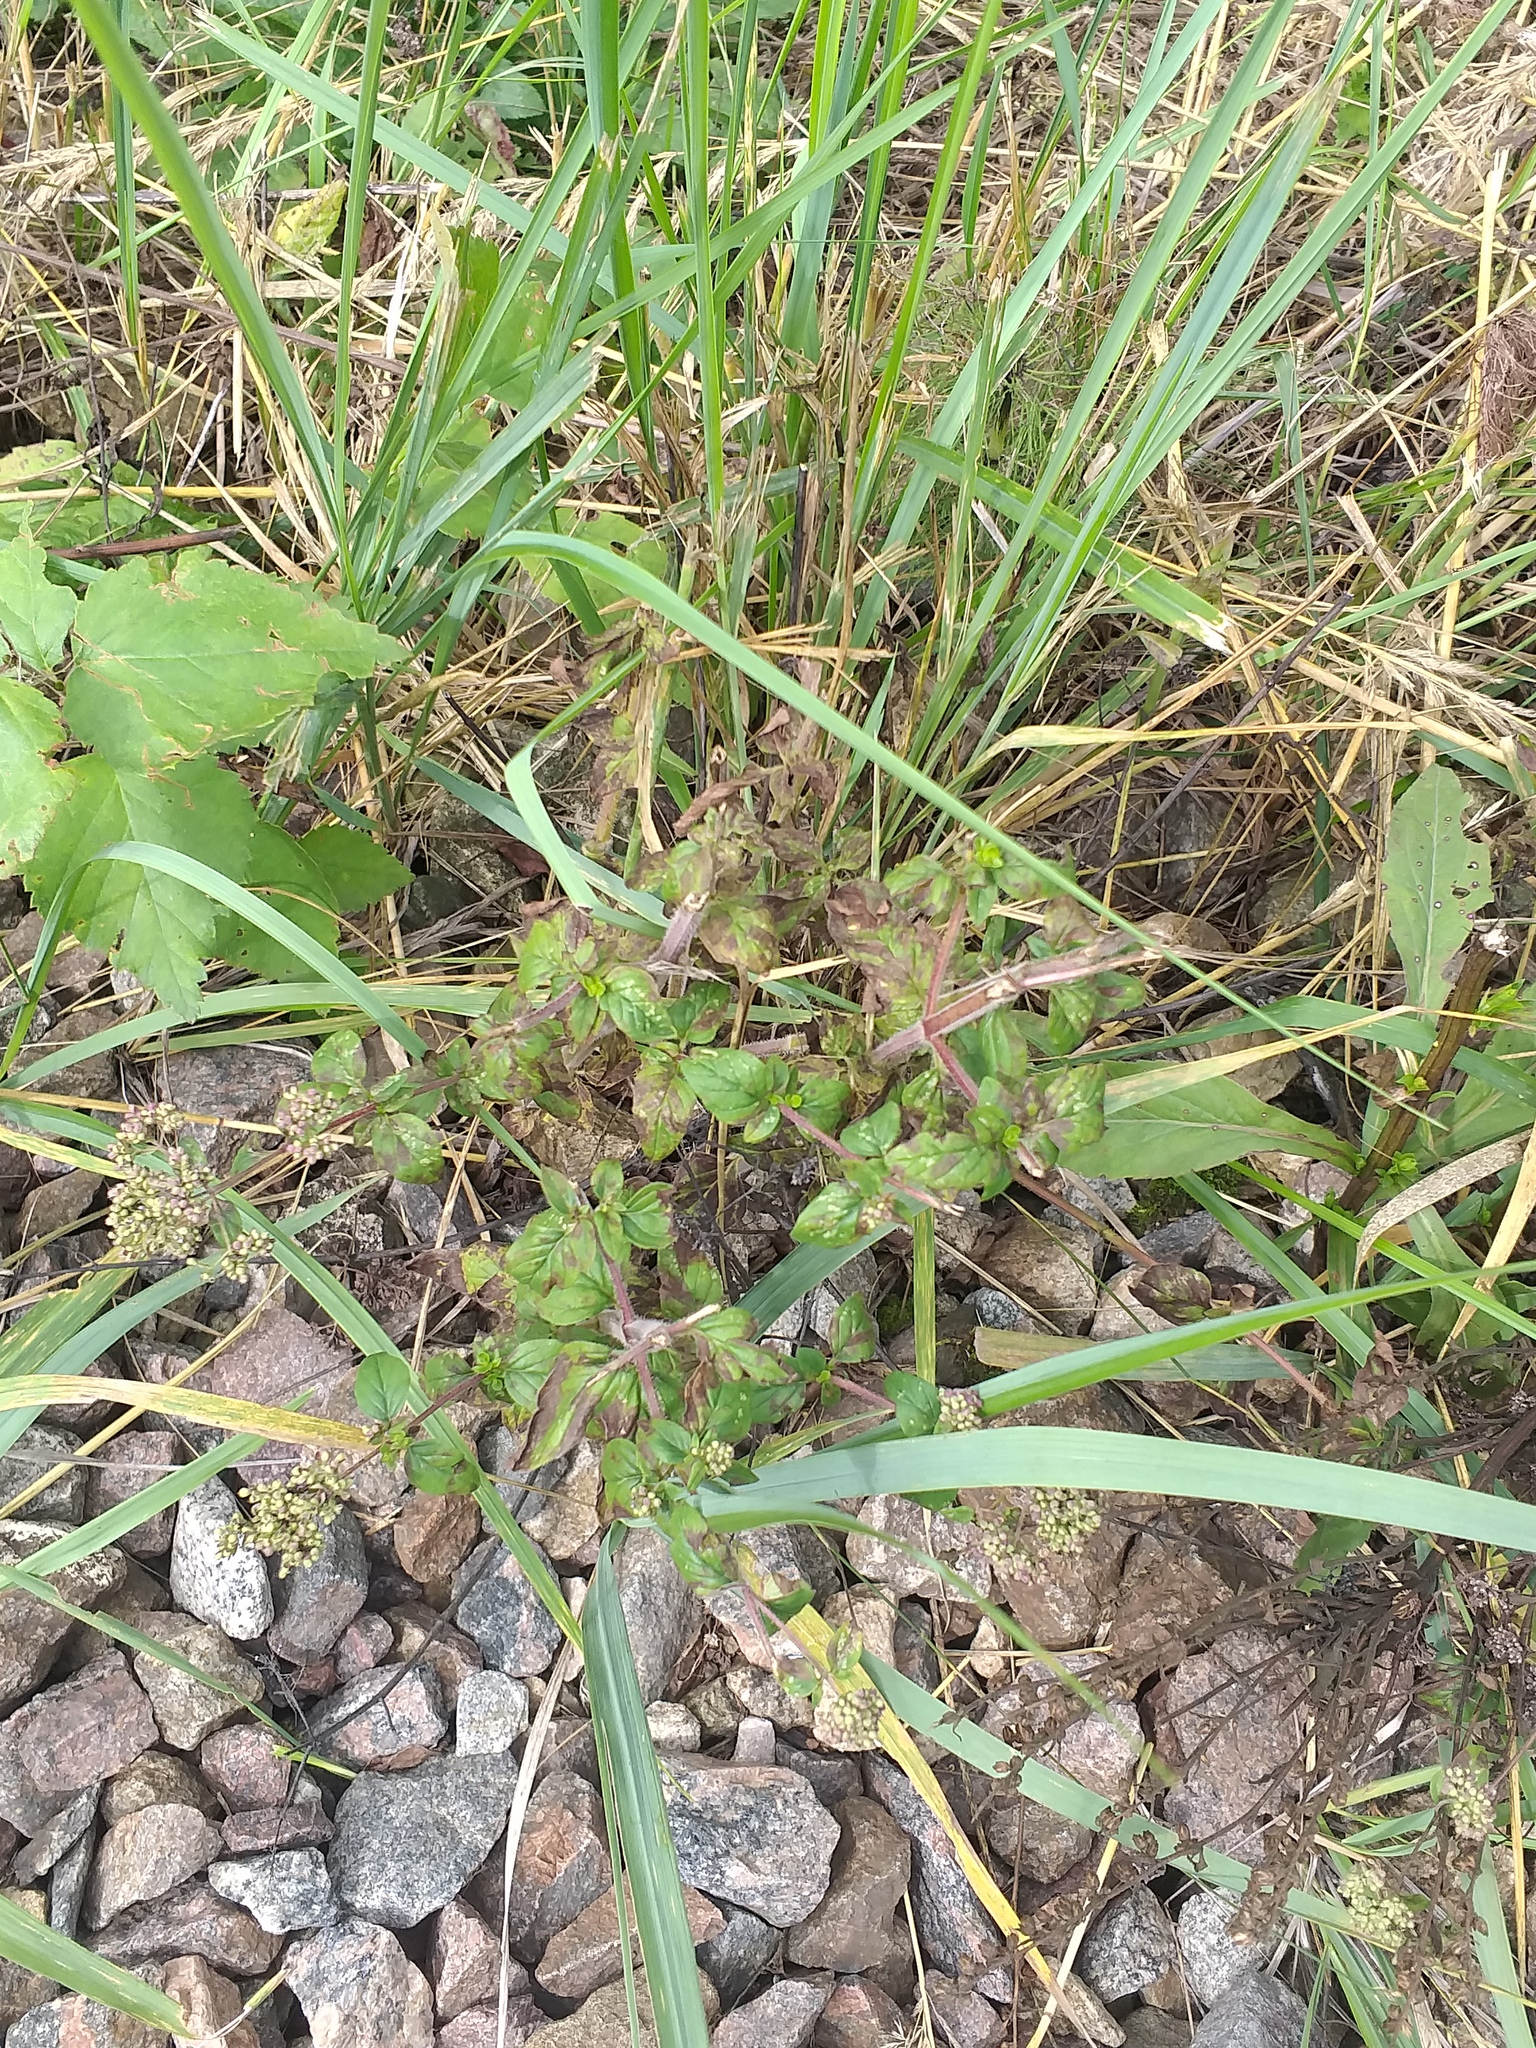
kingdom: Plantae
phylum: Tracheophyta
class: Magnoliopsida
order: Lamiales
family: Lamiaceae
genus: Origanum
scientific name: Origanum vulgare
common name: Wild marjoram
